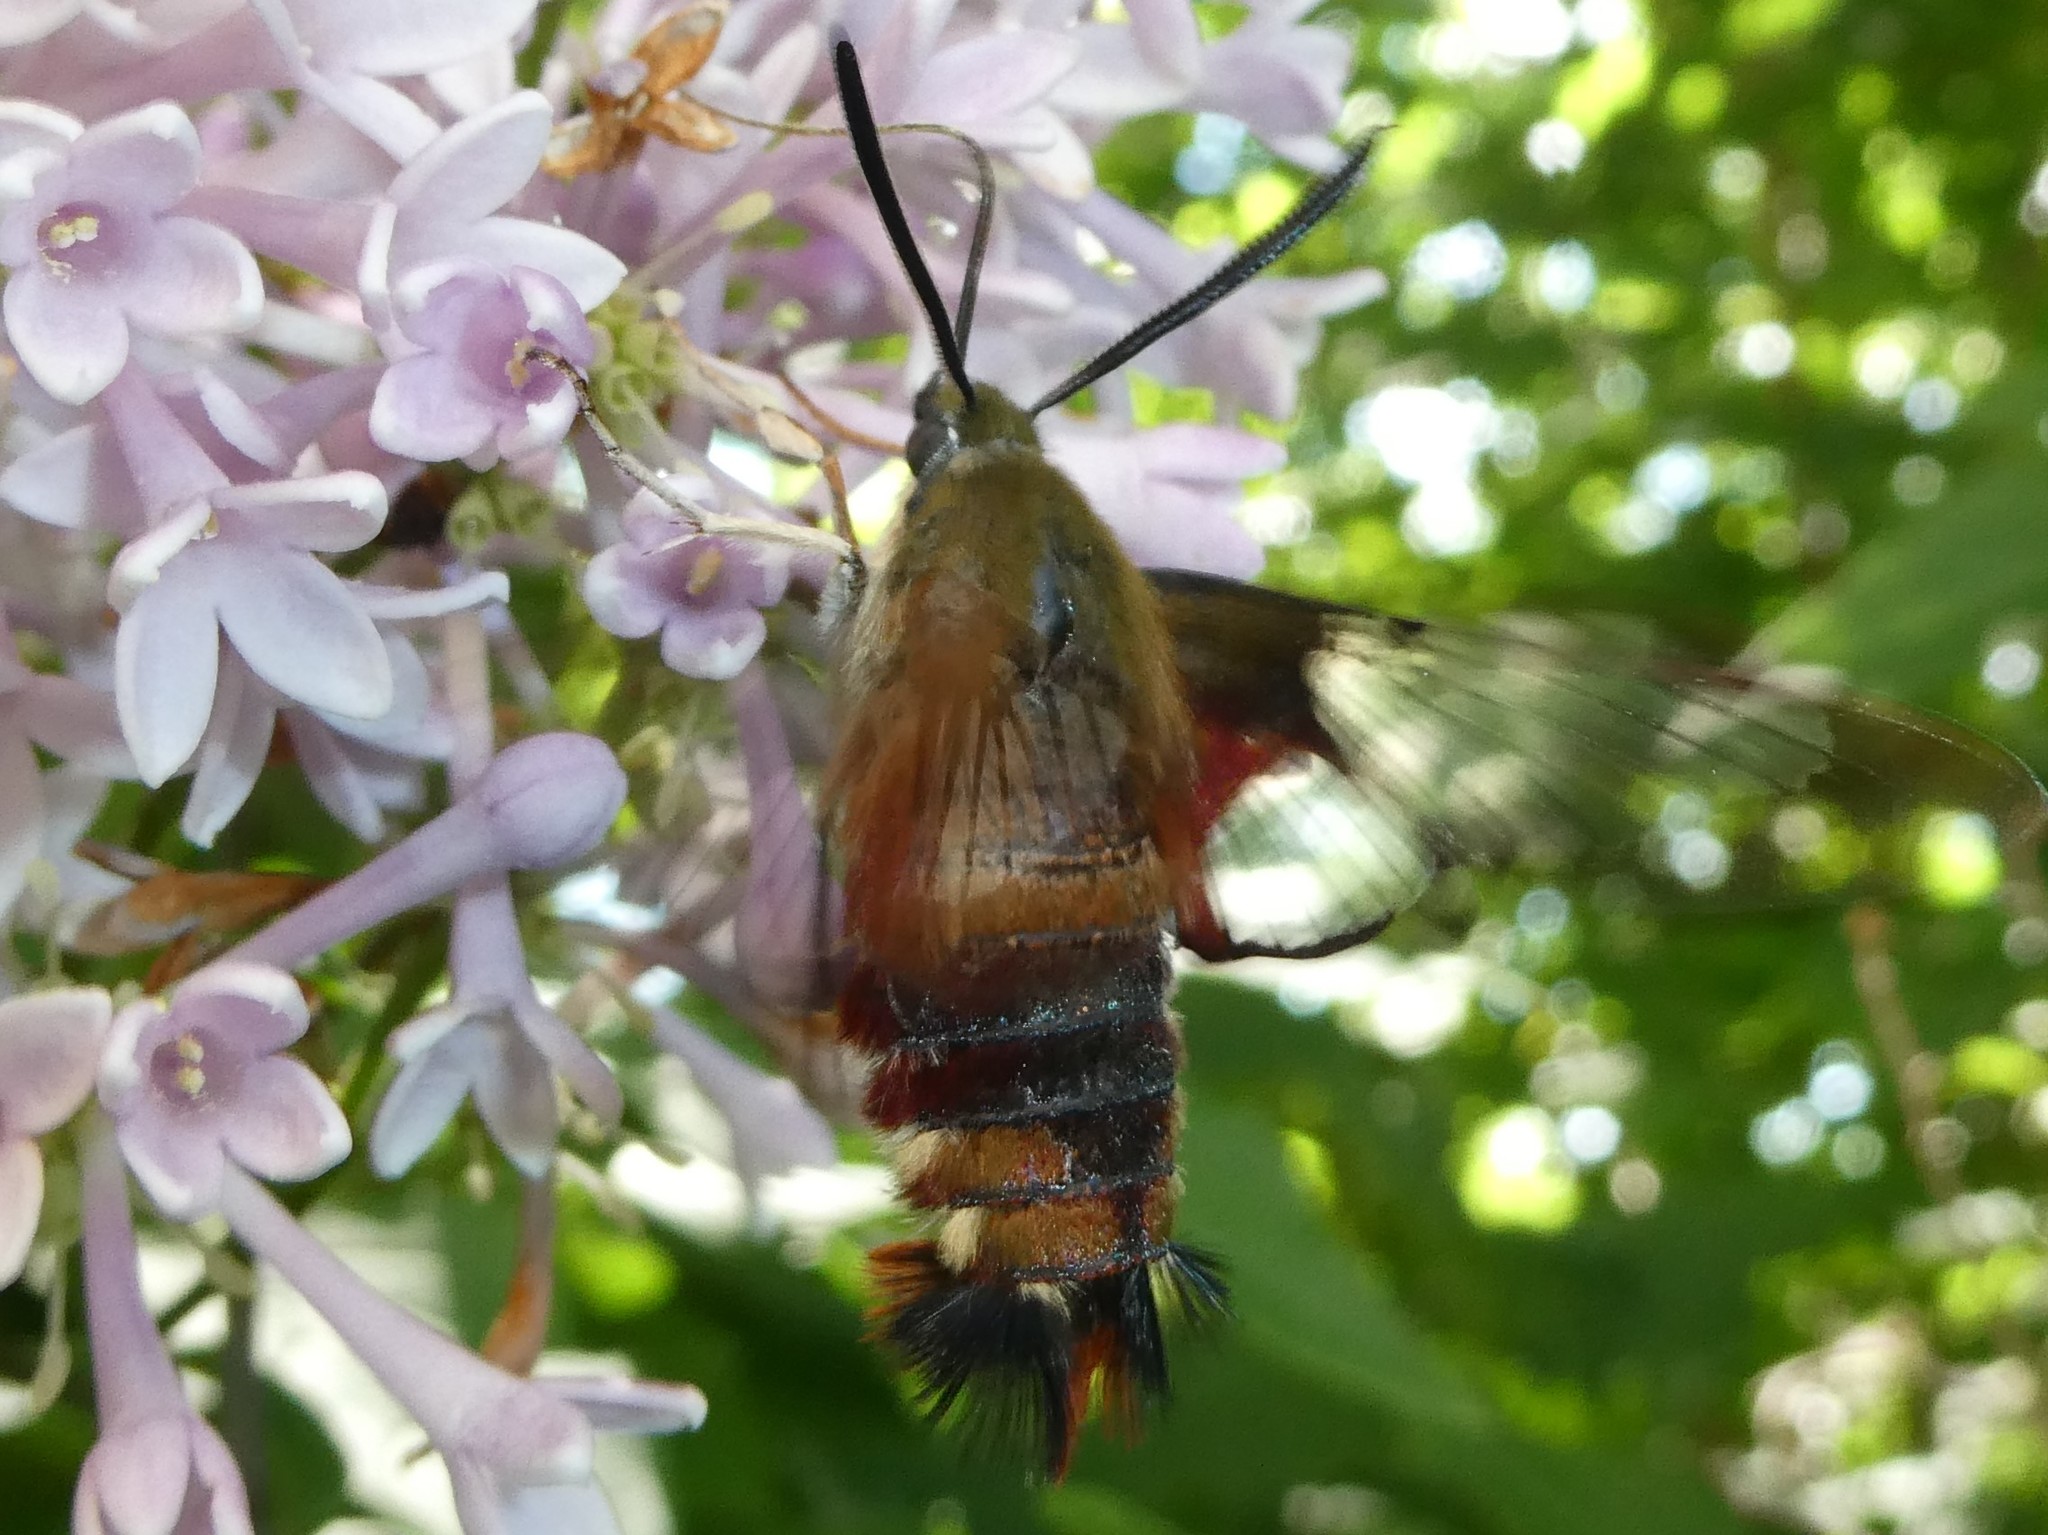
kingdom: Animalia
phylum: Arthropoda
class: Insecta
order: Lepidoptera
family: Sphingidae
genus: Hemaris
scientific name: Hemaris thysbe
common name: Common clear-wing
